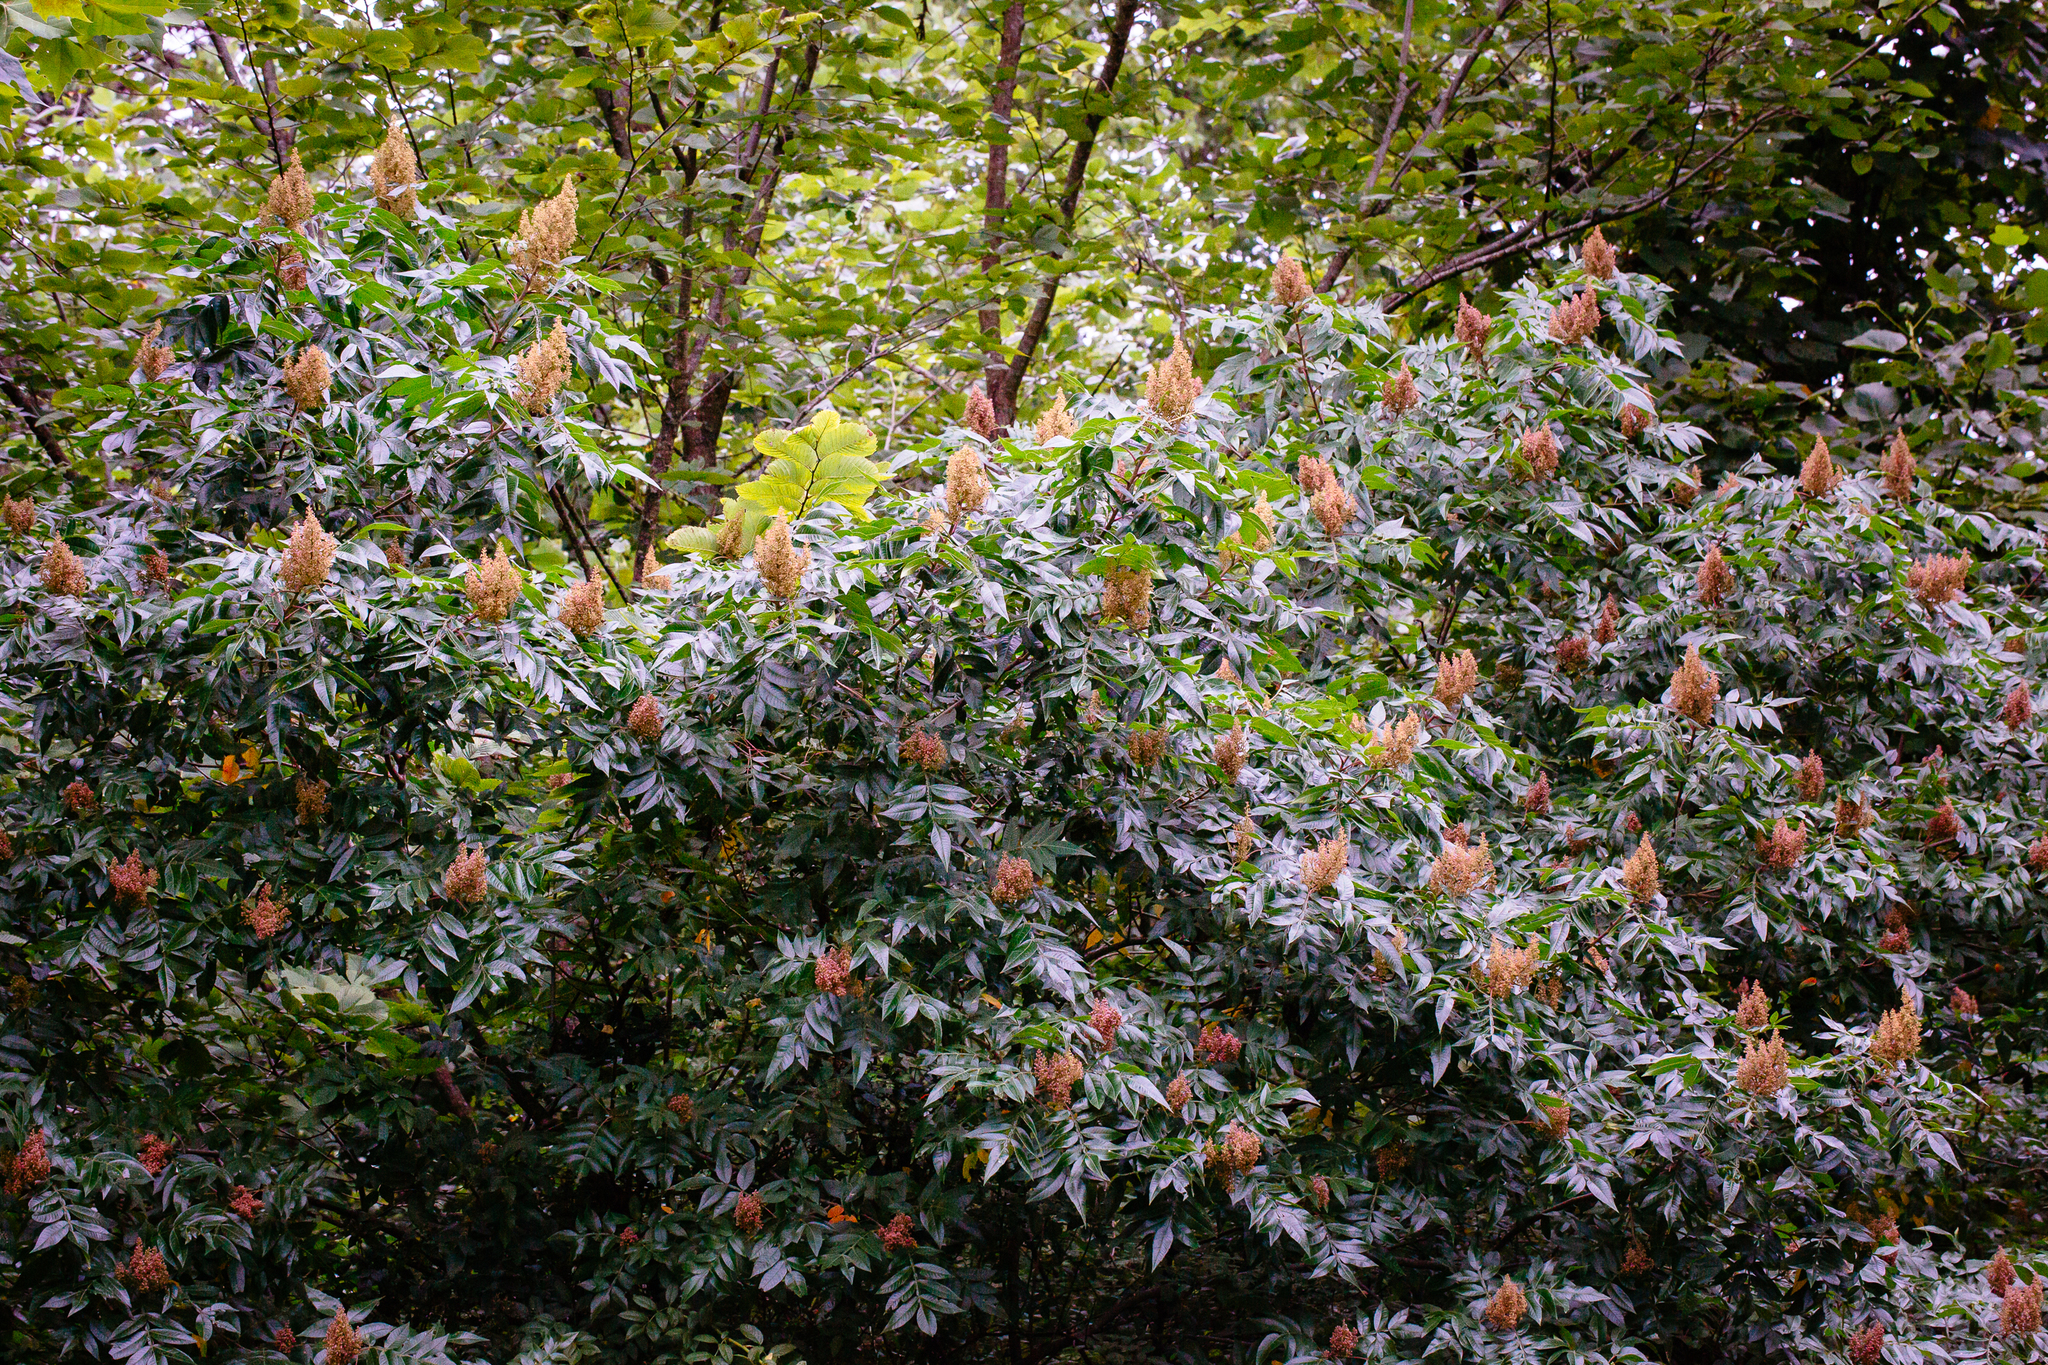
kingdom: Plantae
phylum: Tracheophyta
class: Magnoliopsida
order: Sapindales
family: Anacardiaceae
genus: Rhus
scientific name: Rhus copallina
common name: Shining sumac
